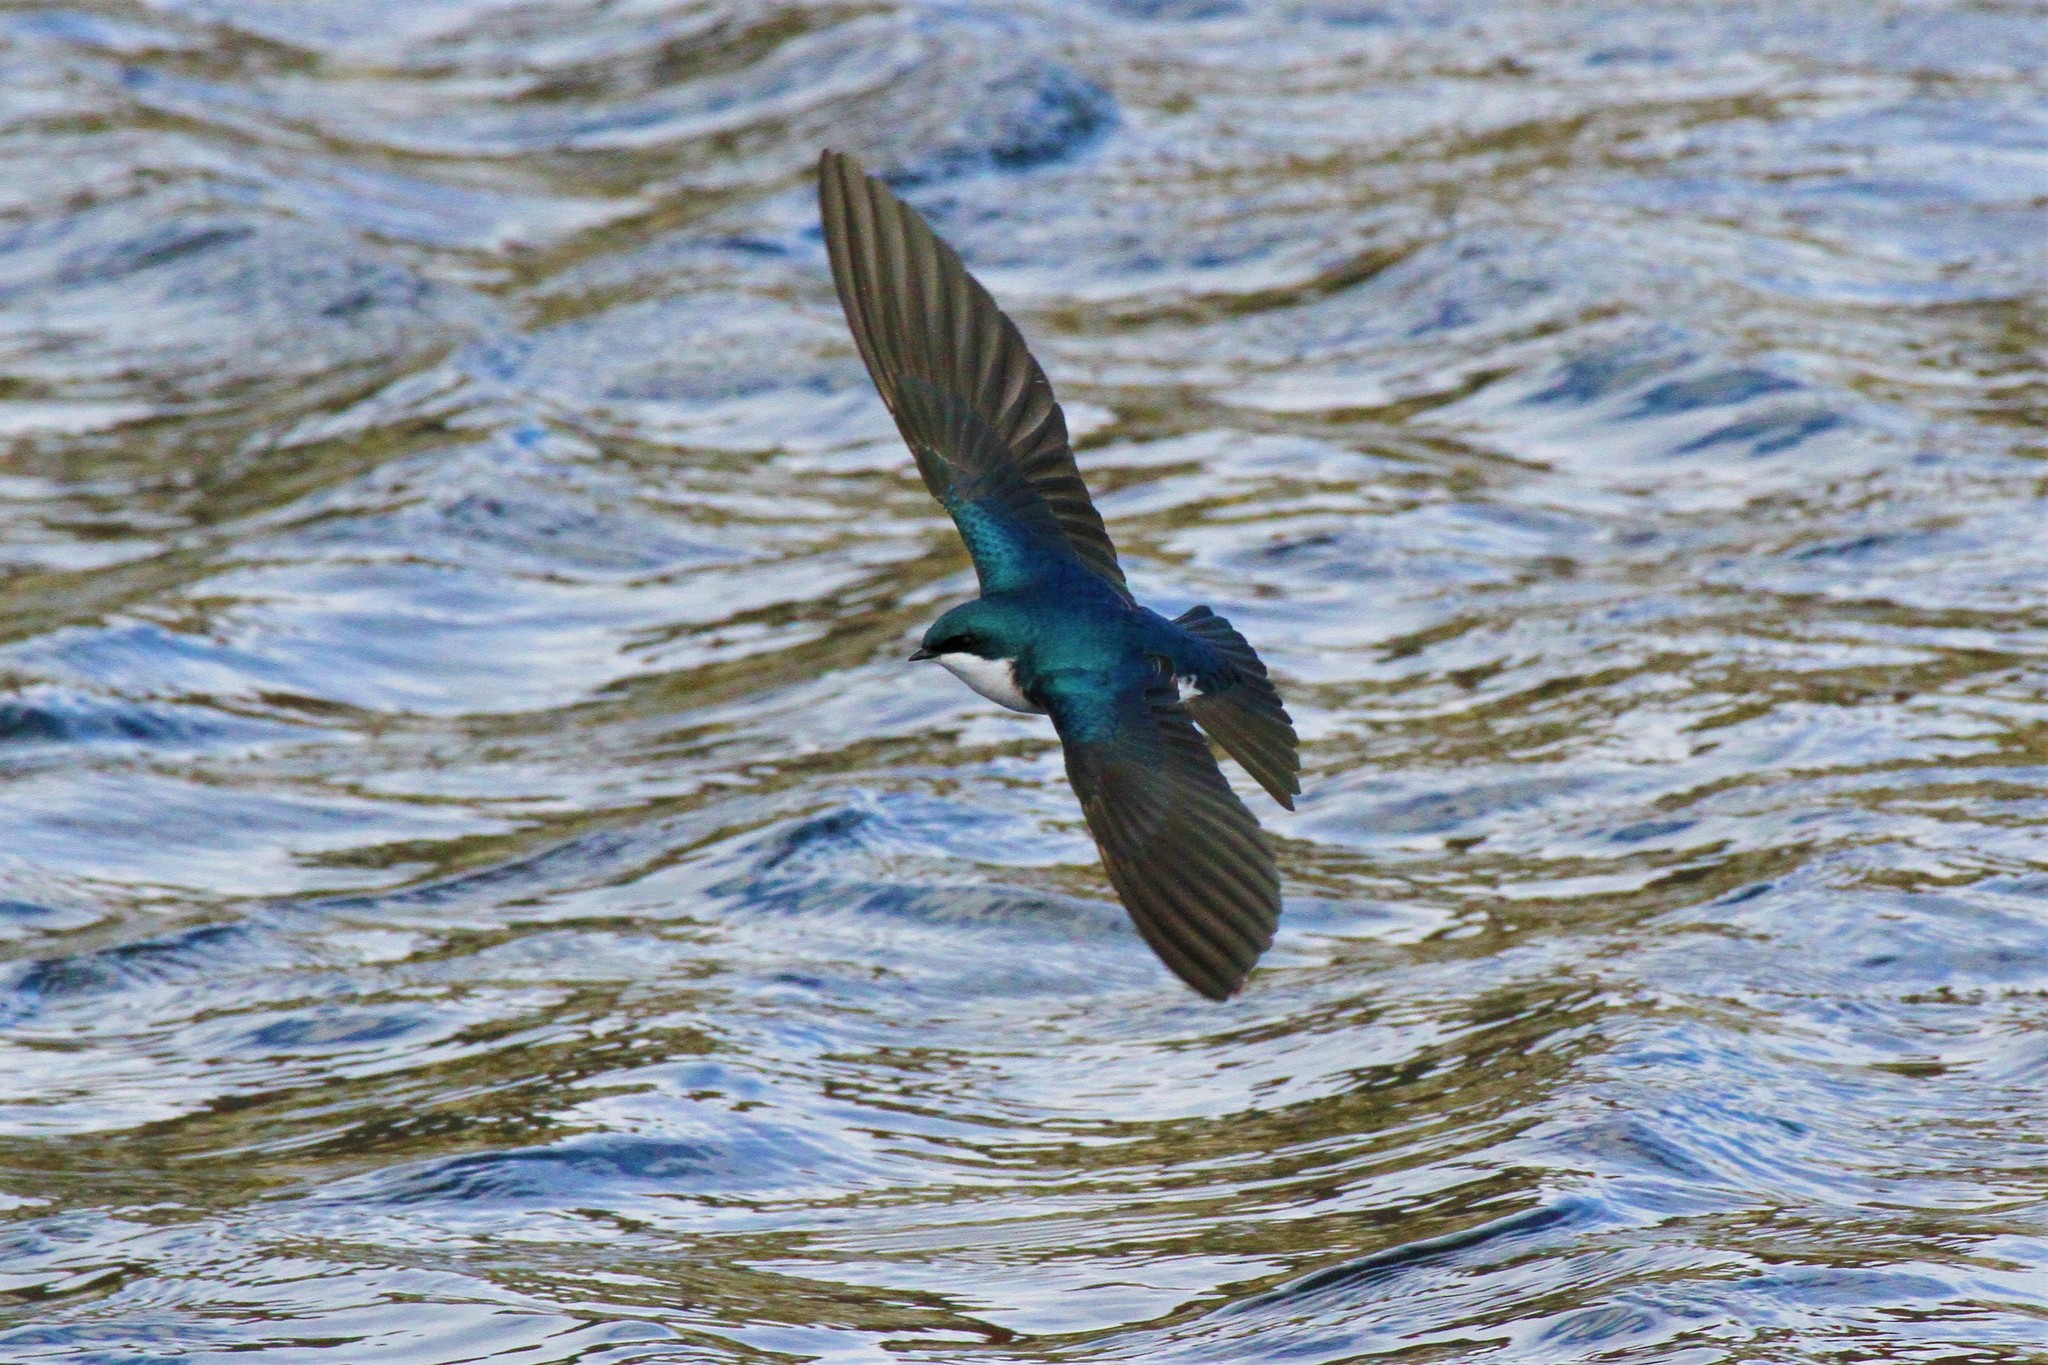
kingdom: Animalia
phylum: Chordata
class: Aves
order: Passeriformes
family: Hirundinidae
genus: Tachycineta
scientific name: Tachycineta bicolor
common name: Tree swallow
